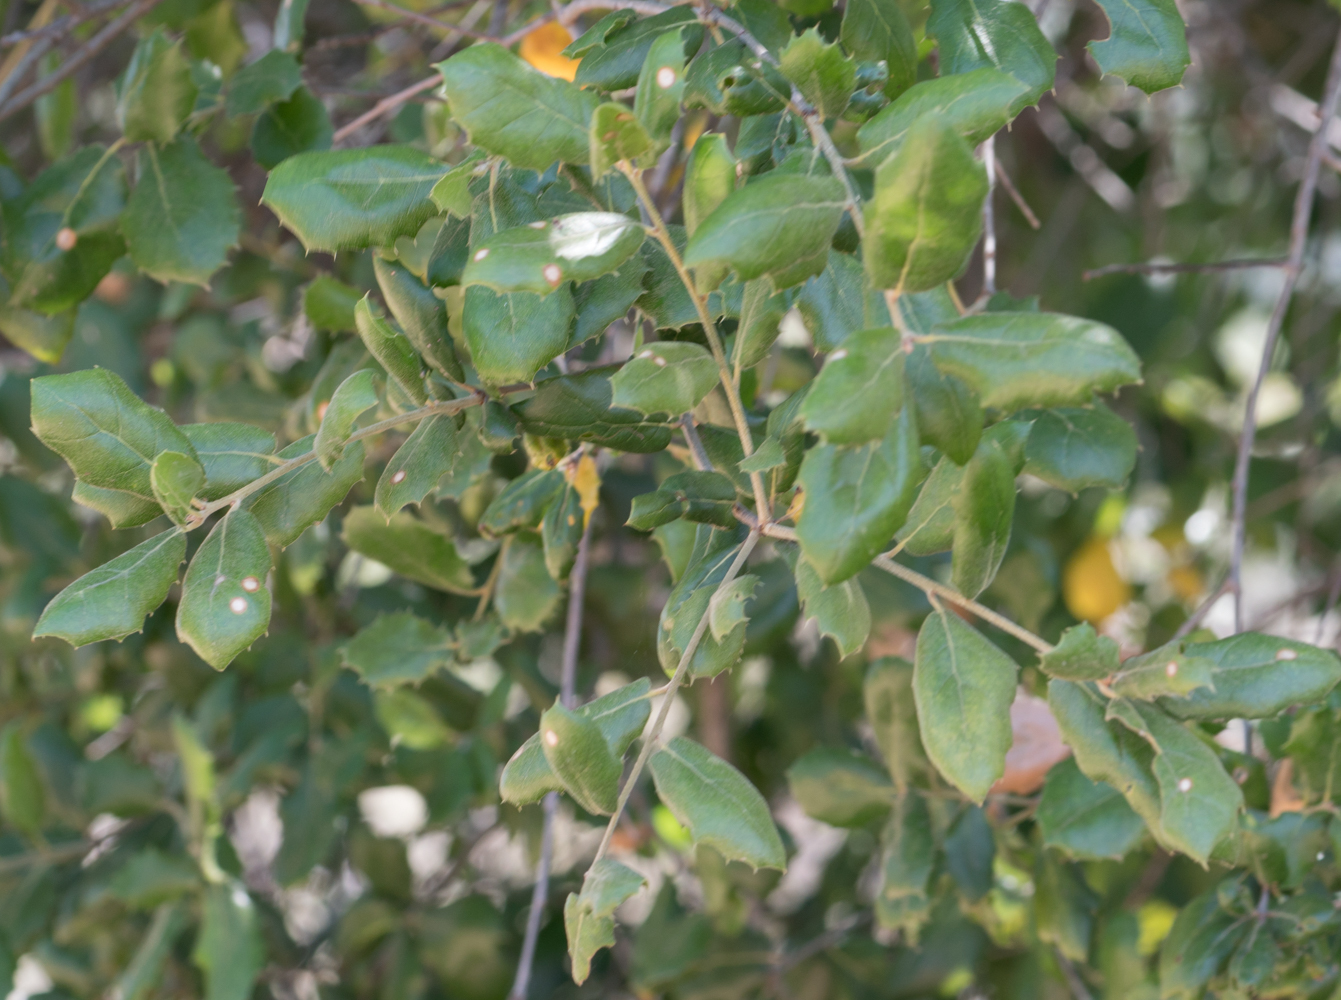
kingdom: Plantae
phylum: Tracheophyta
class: Magnoliopsida
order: Fagales
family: Fagaceae
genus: Quercus
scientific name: Quercus agrifolia
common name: California live oak
